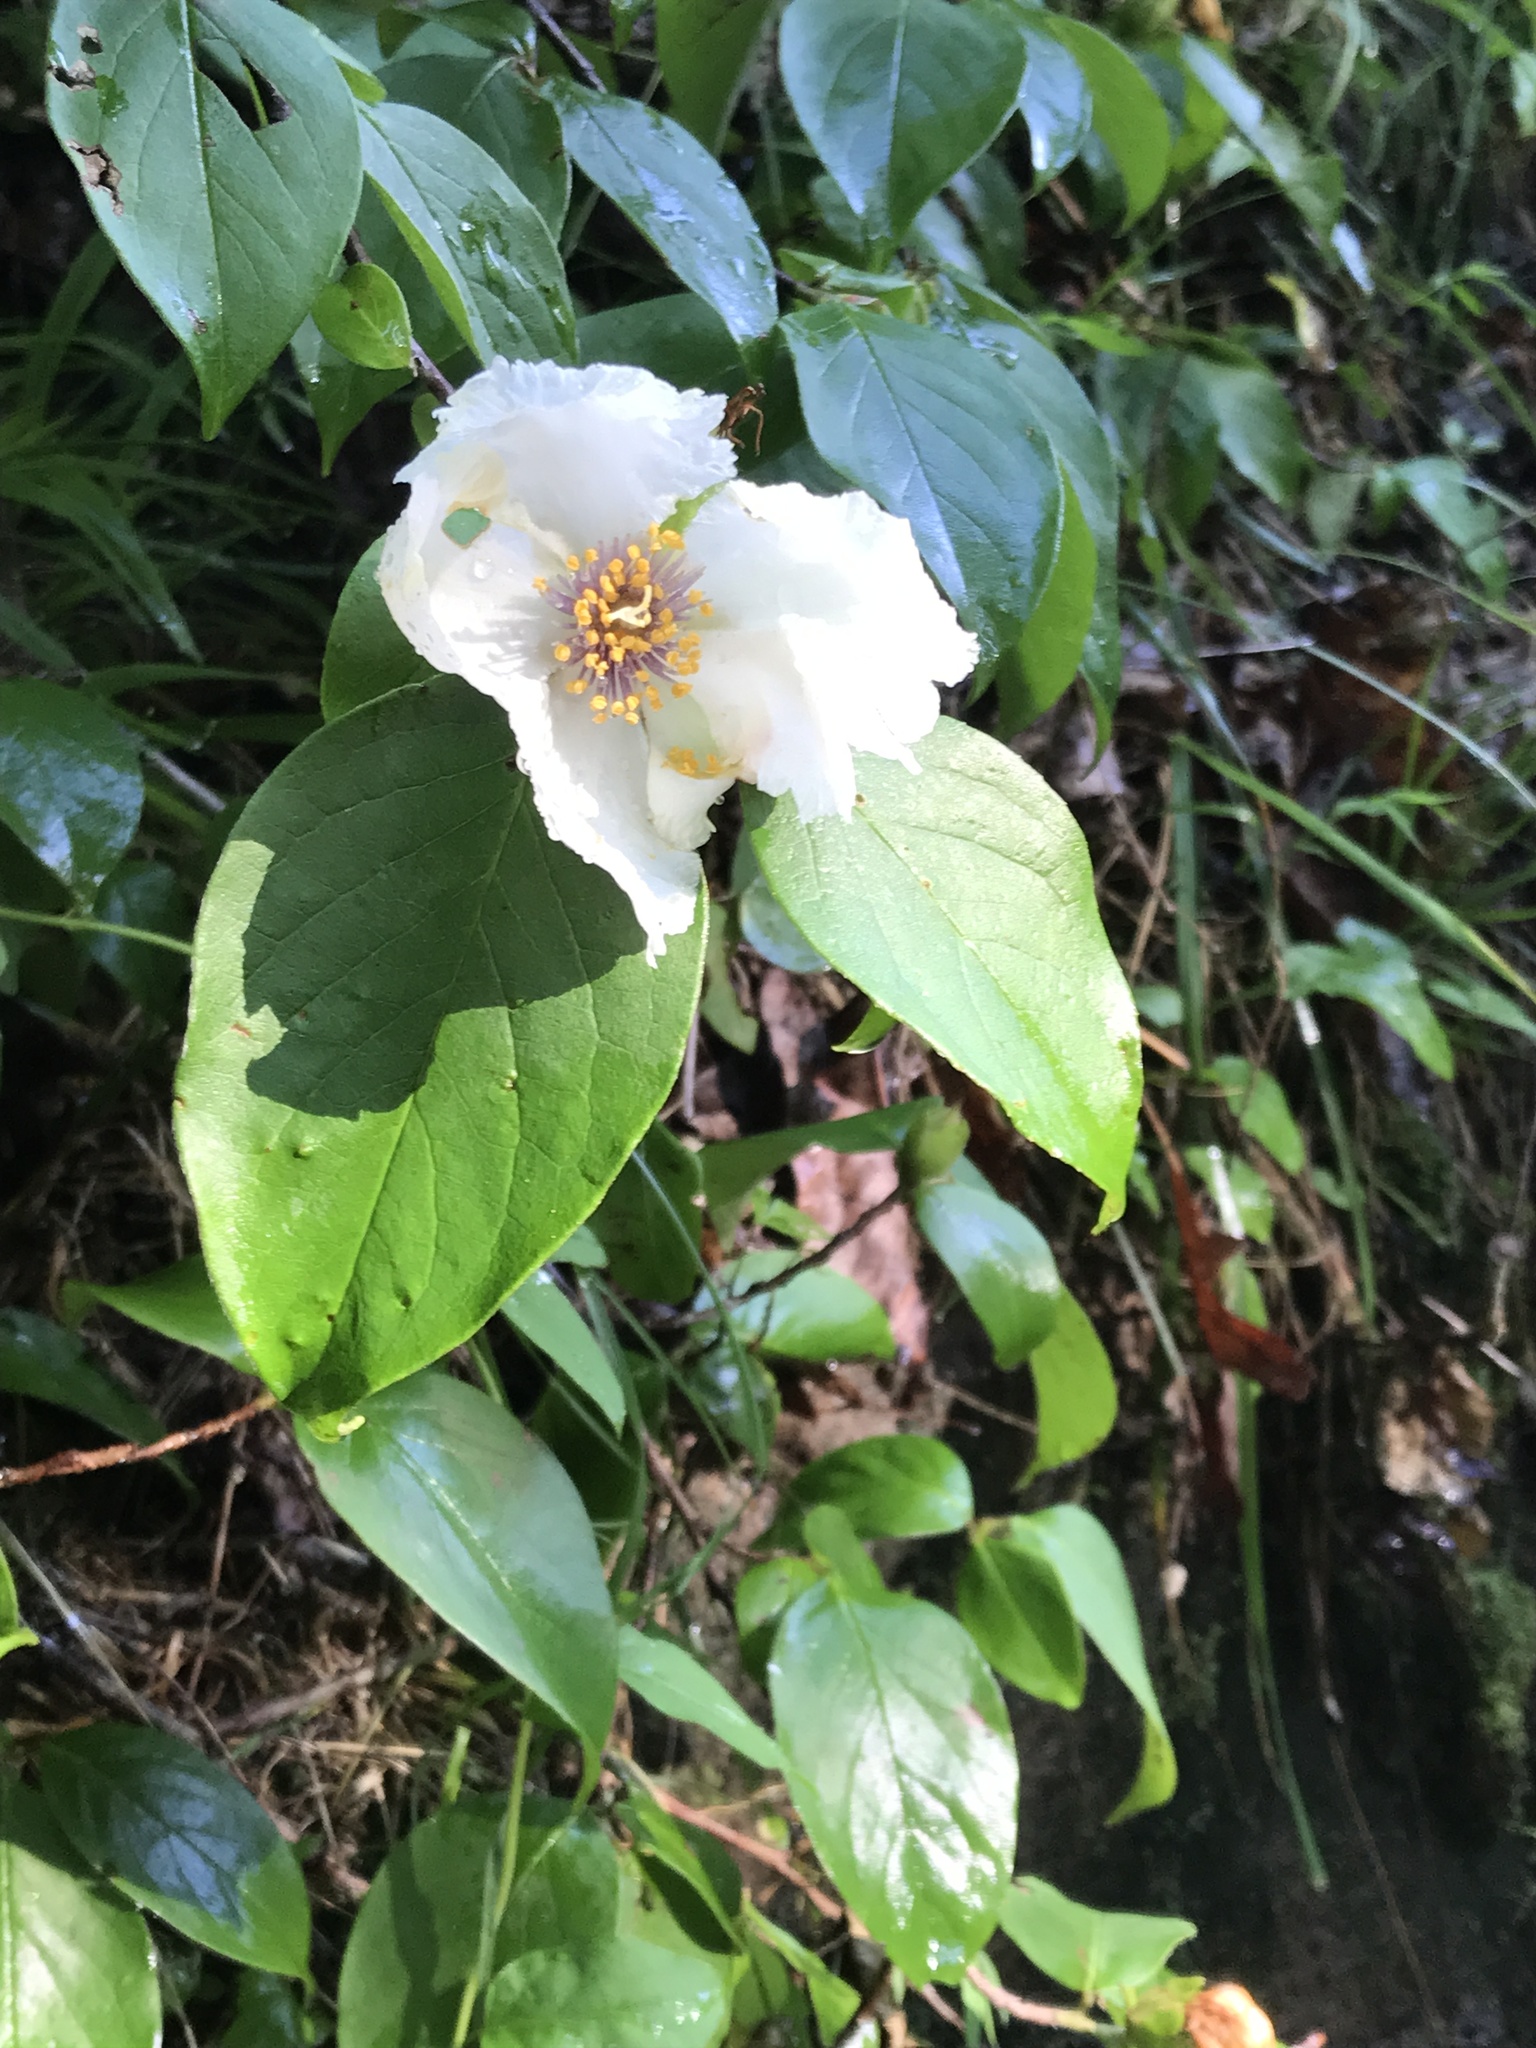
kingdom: Plantae
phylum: Tracheophyta
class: Magnoliopsida
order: Ericales
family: Theaceae
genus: Stewartia
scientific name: Stewartia ovata
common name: Mountain camellia
